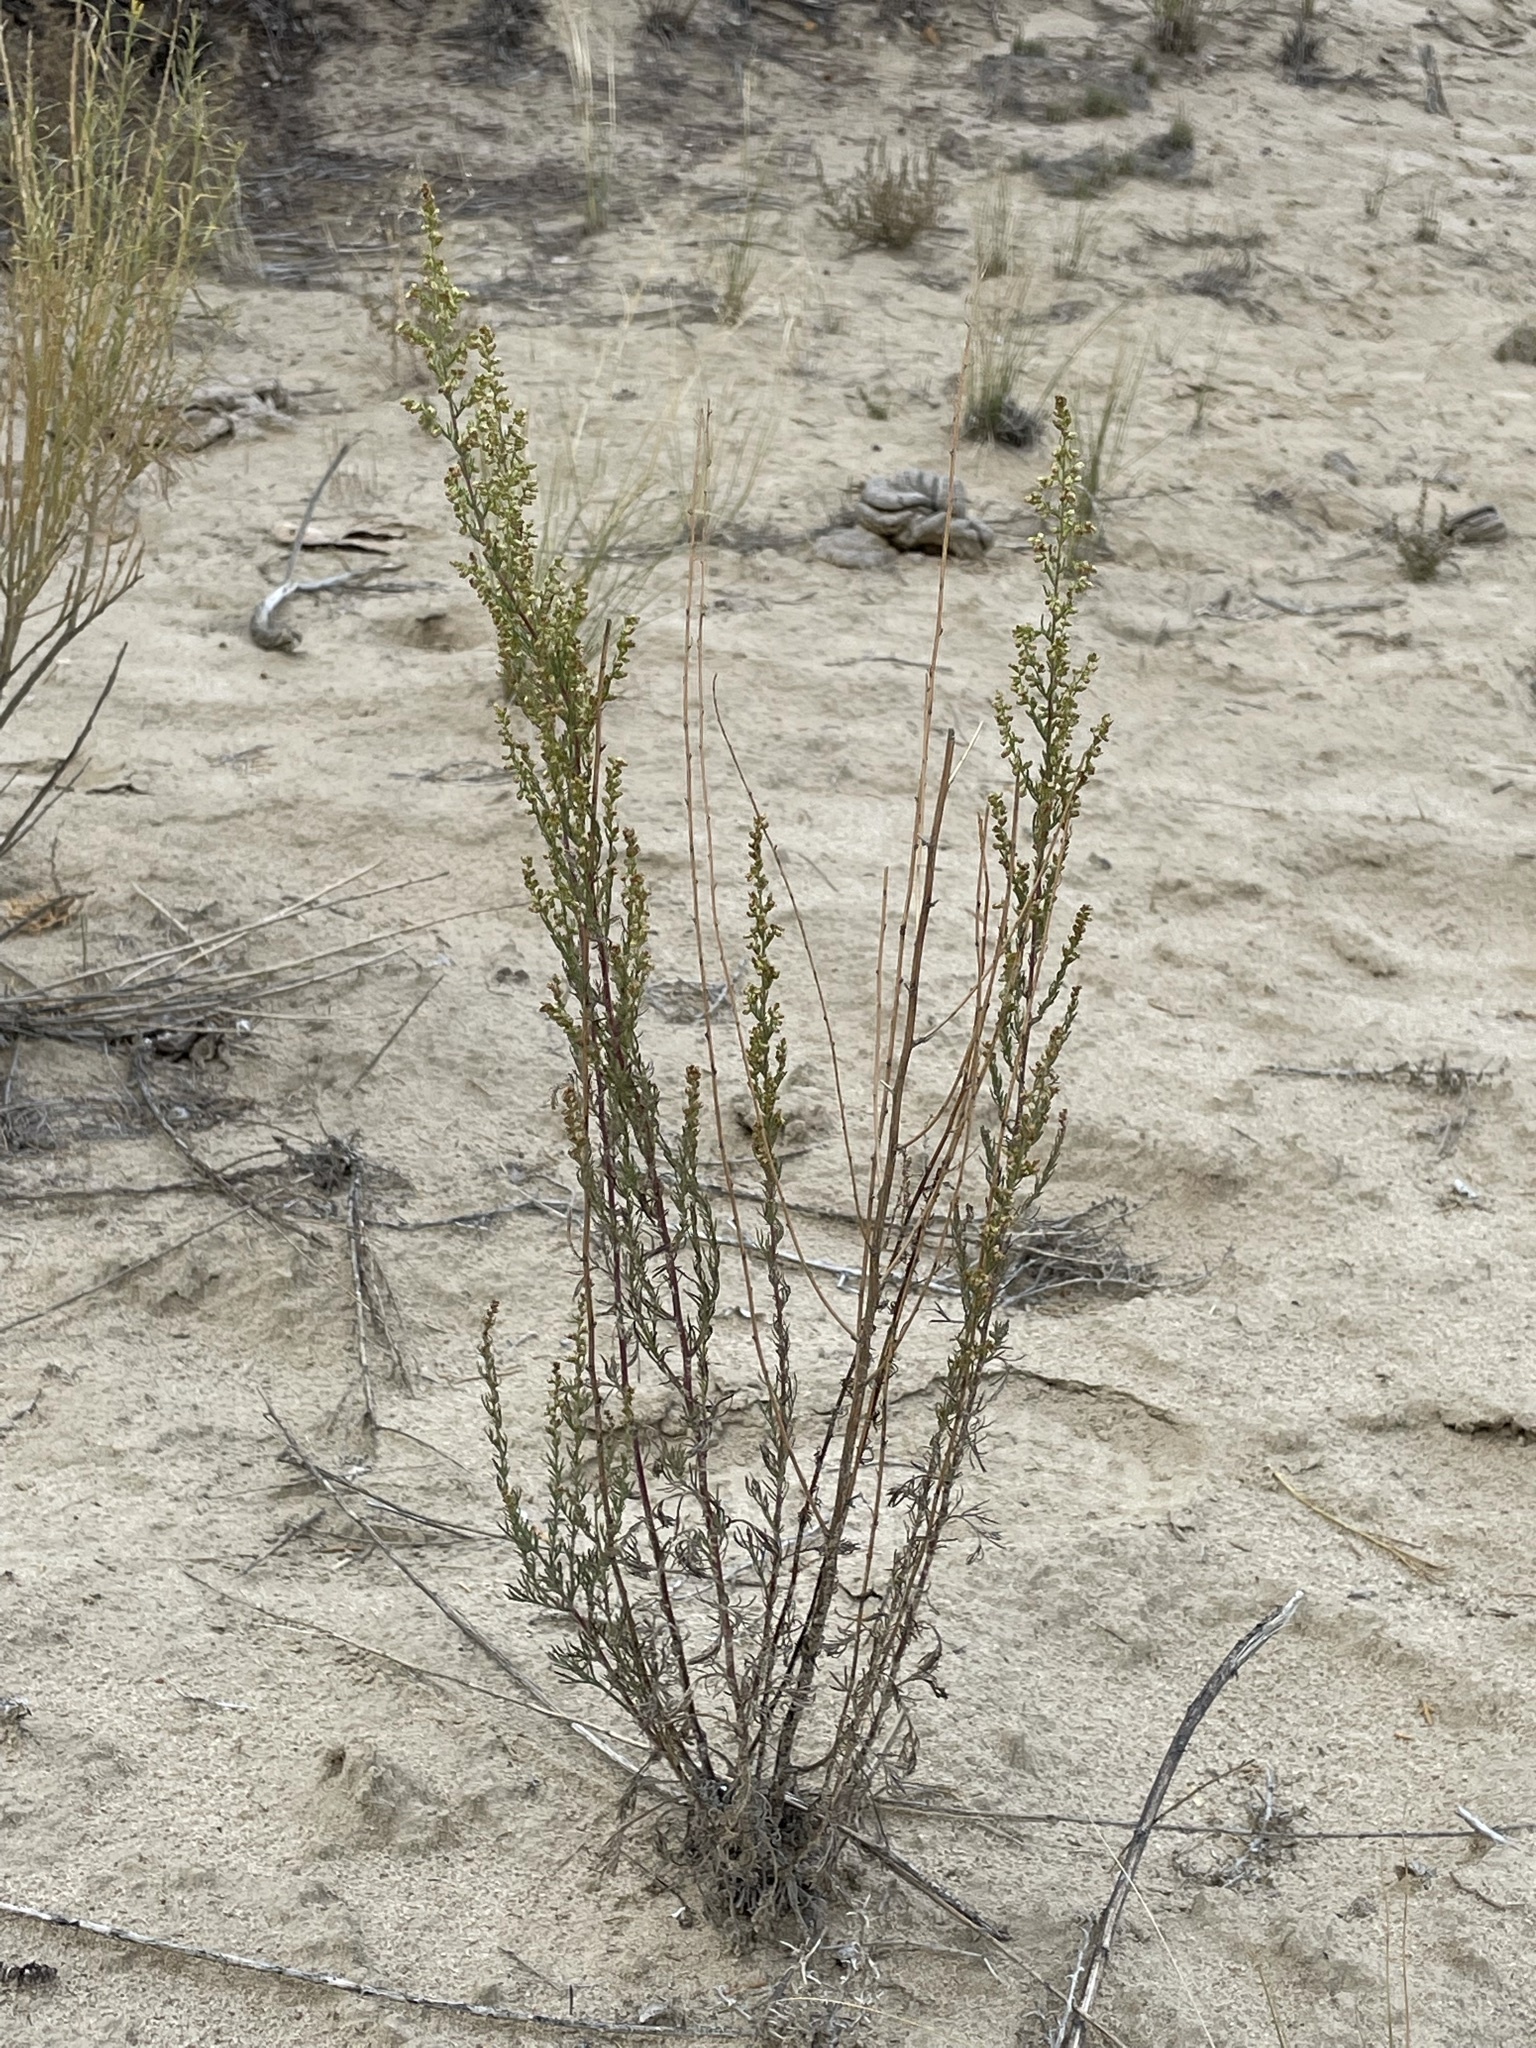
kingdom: Plantae
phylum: Tracheophyta
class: Magnoliopsida
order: Asterales
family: Asteraceae
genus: Artemisia
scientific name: Artemisia campestris
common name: Field wormwood
